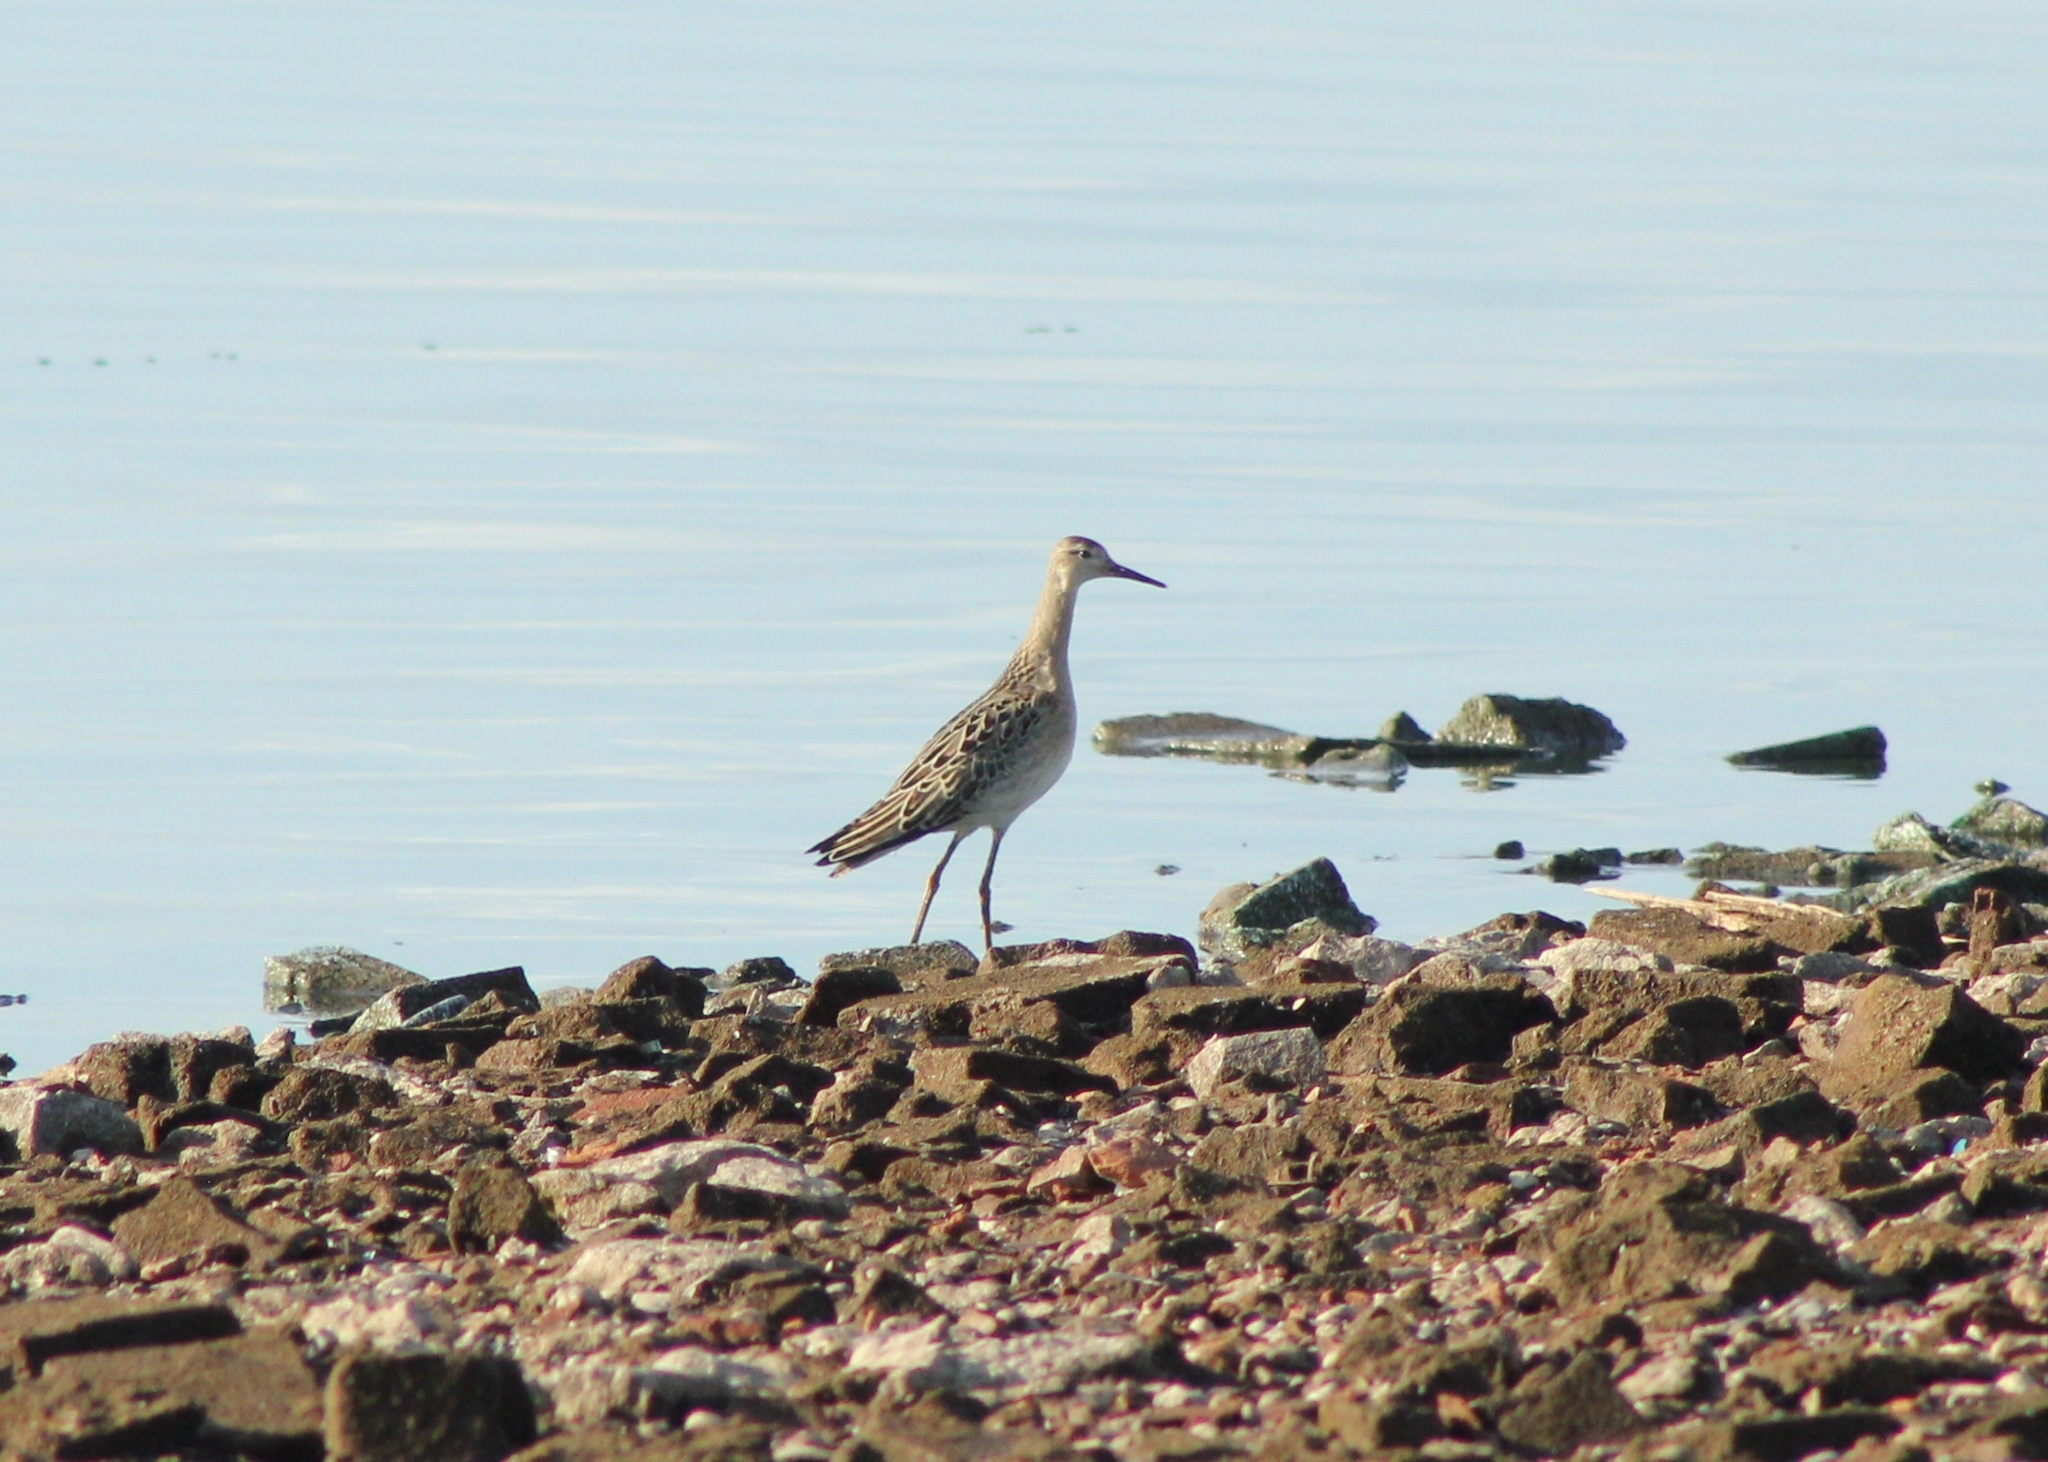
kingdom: Animalia
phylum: Chordata
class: Aves
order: Charadriiformes
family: Scolopacidae
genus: Calidris
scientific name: Calidris pugnax
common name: Ruff
